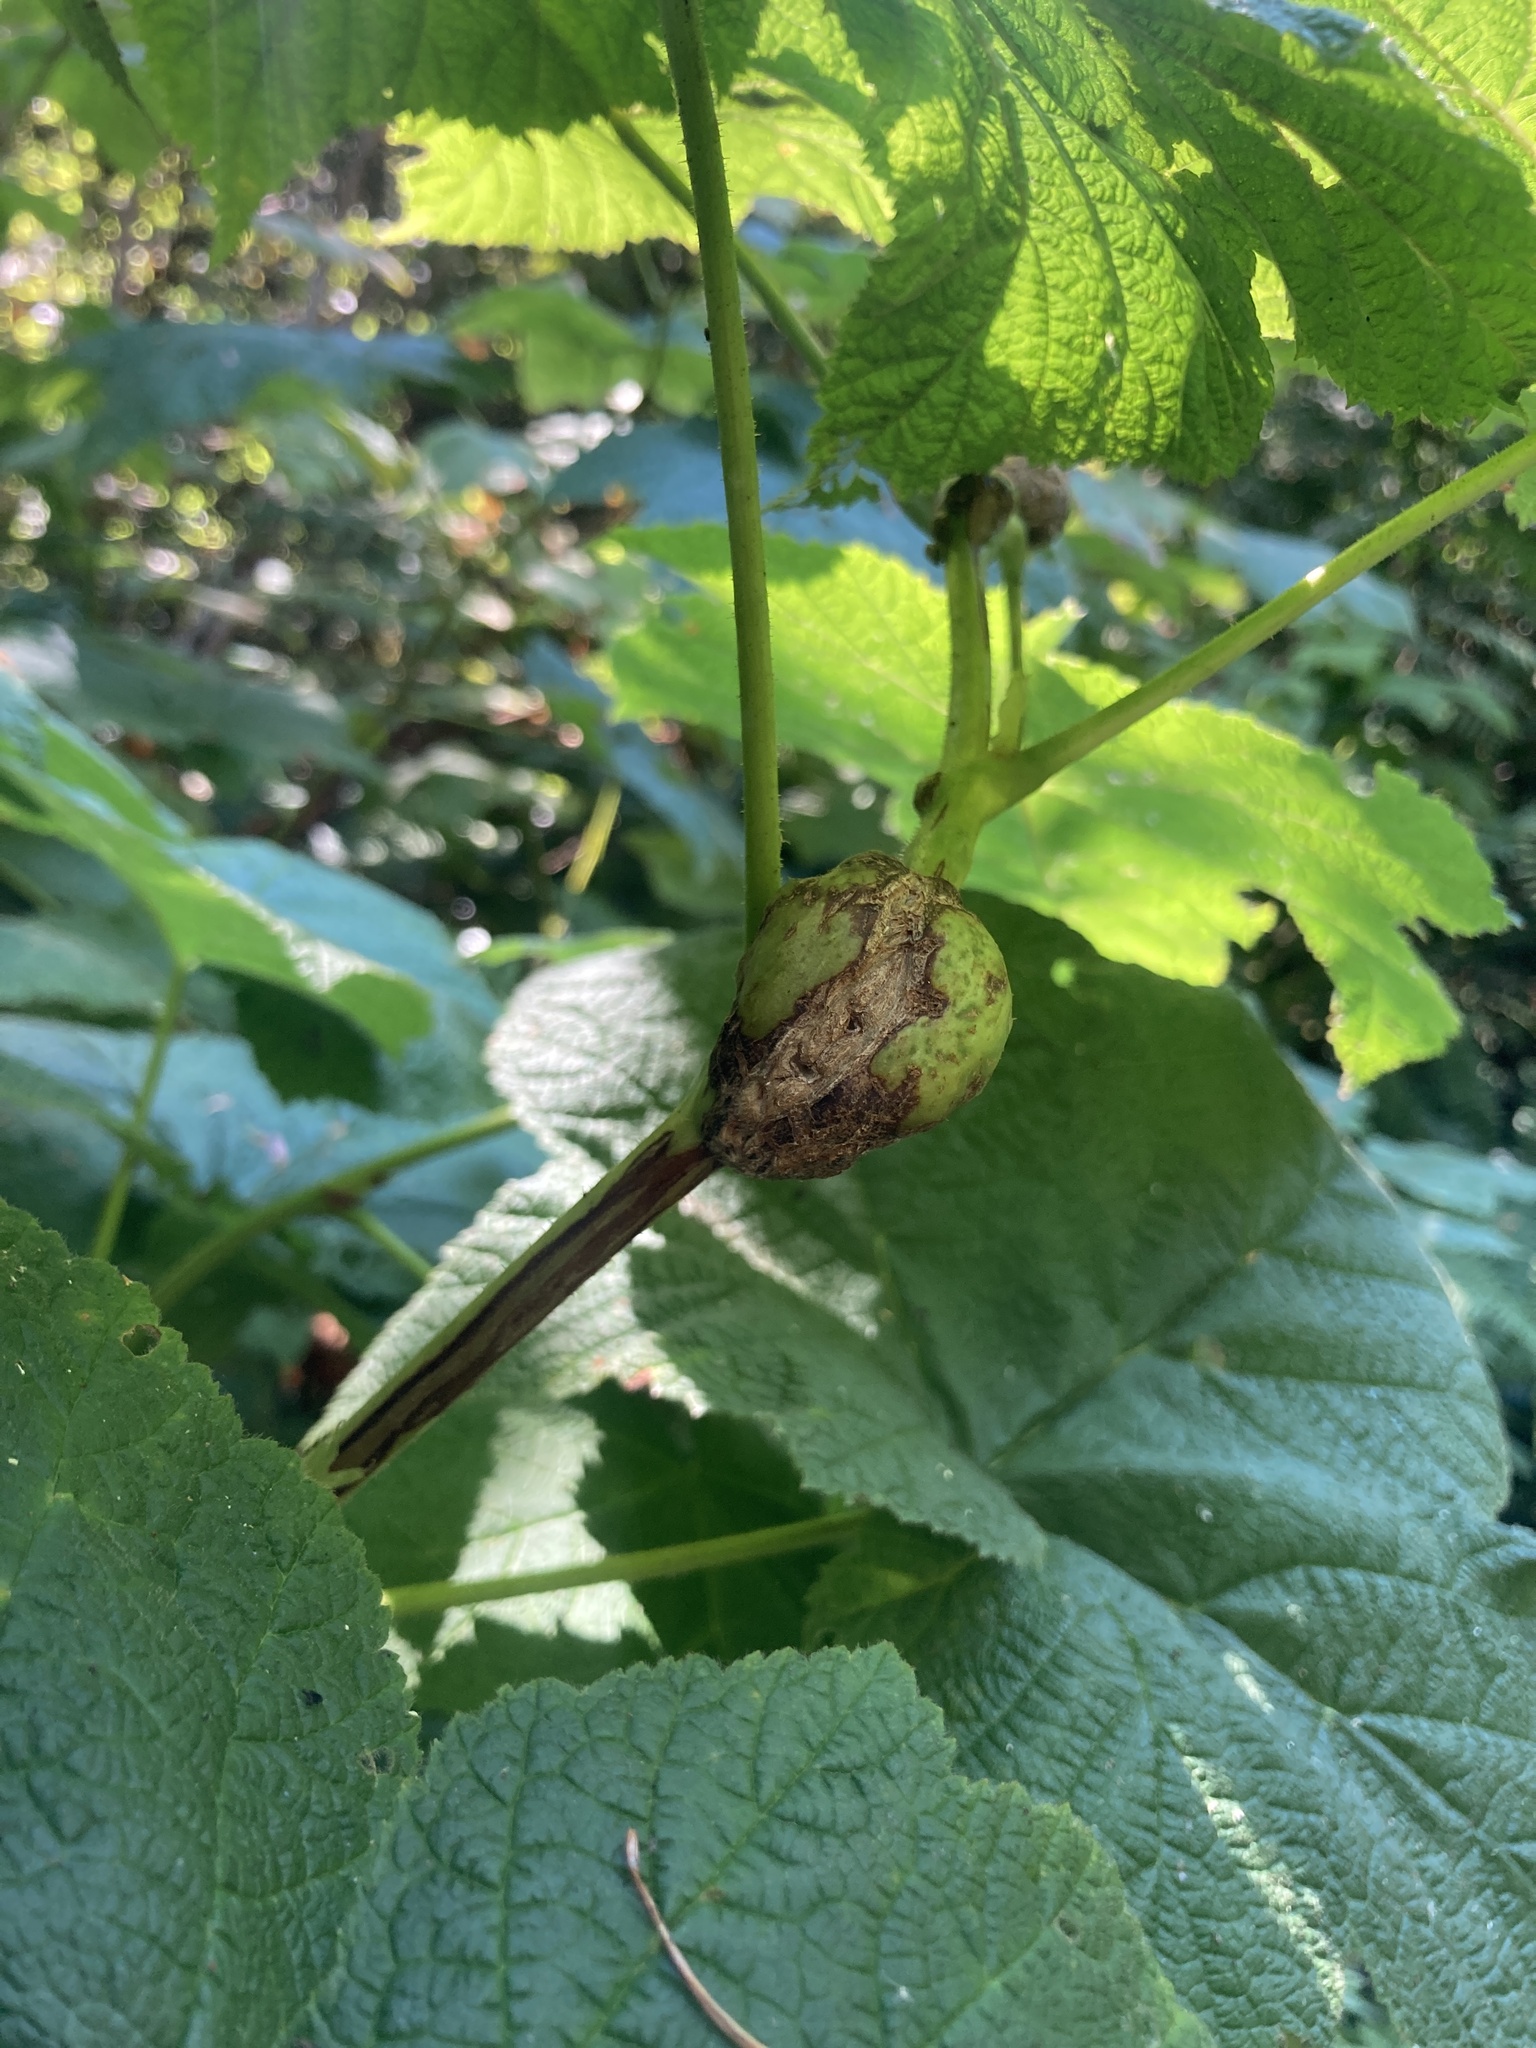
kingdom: Animalia
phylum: Arthropoda
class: Insecta
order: Hymenoptera
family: Cynipidae
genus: Diastrophus
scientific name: Diastrophus
